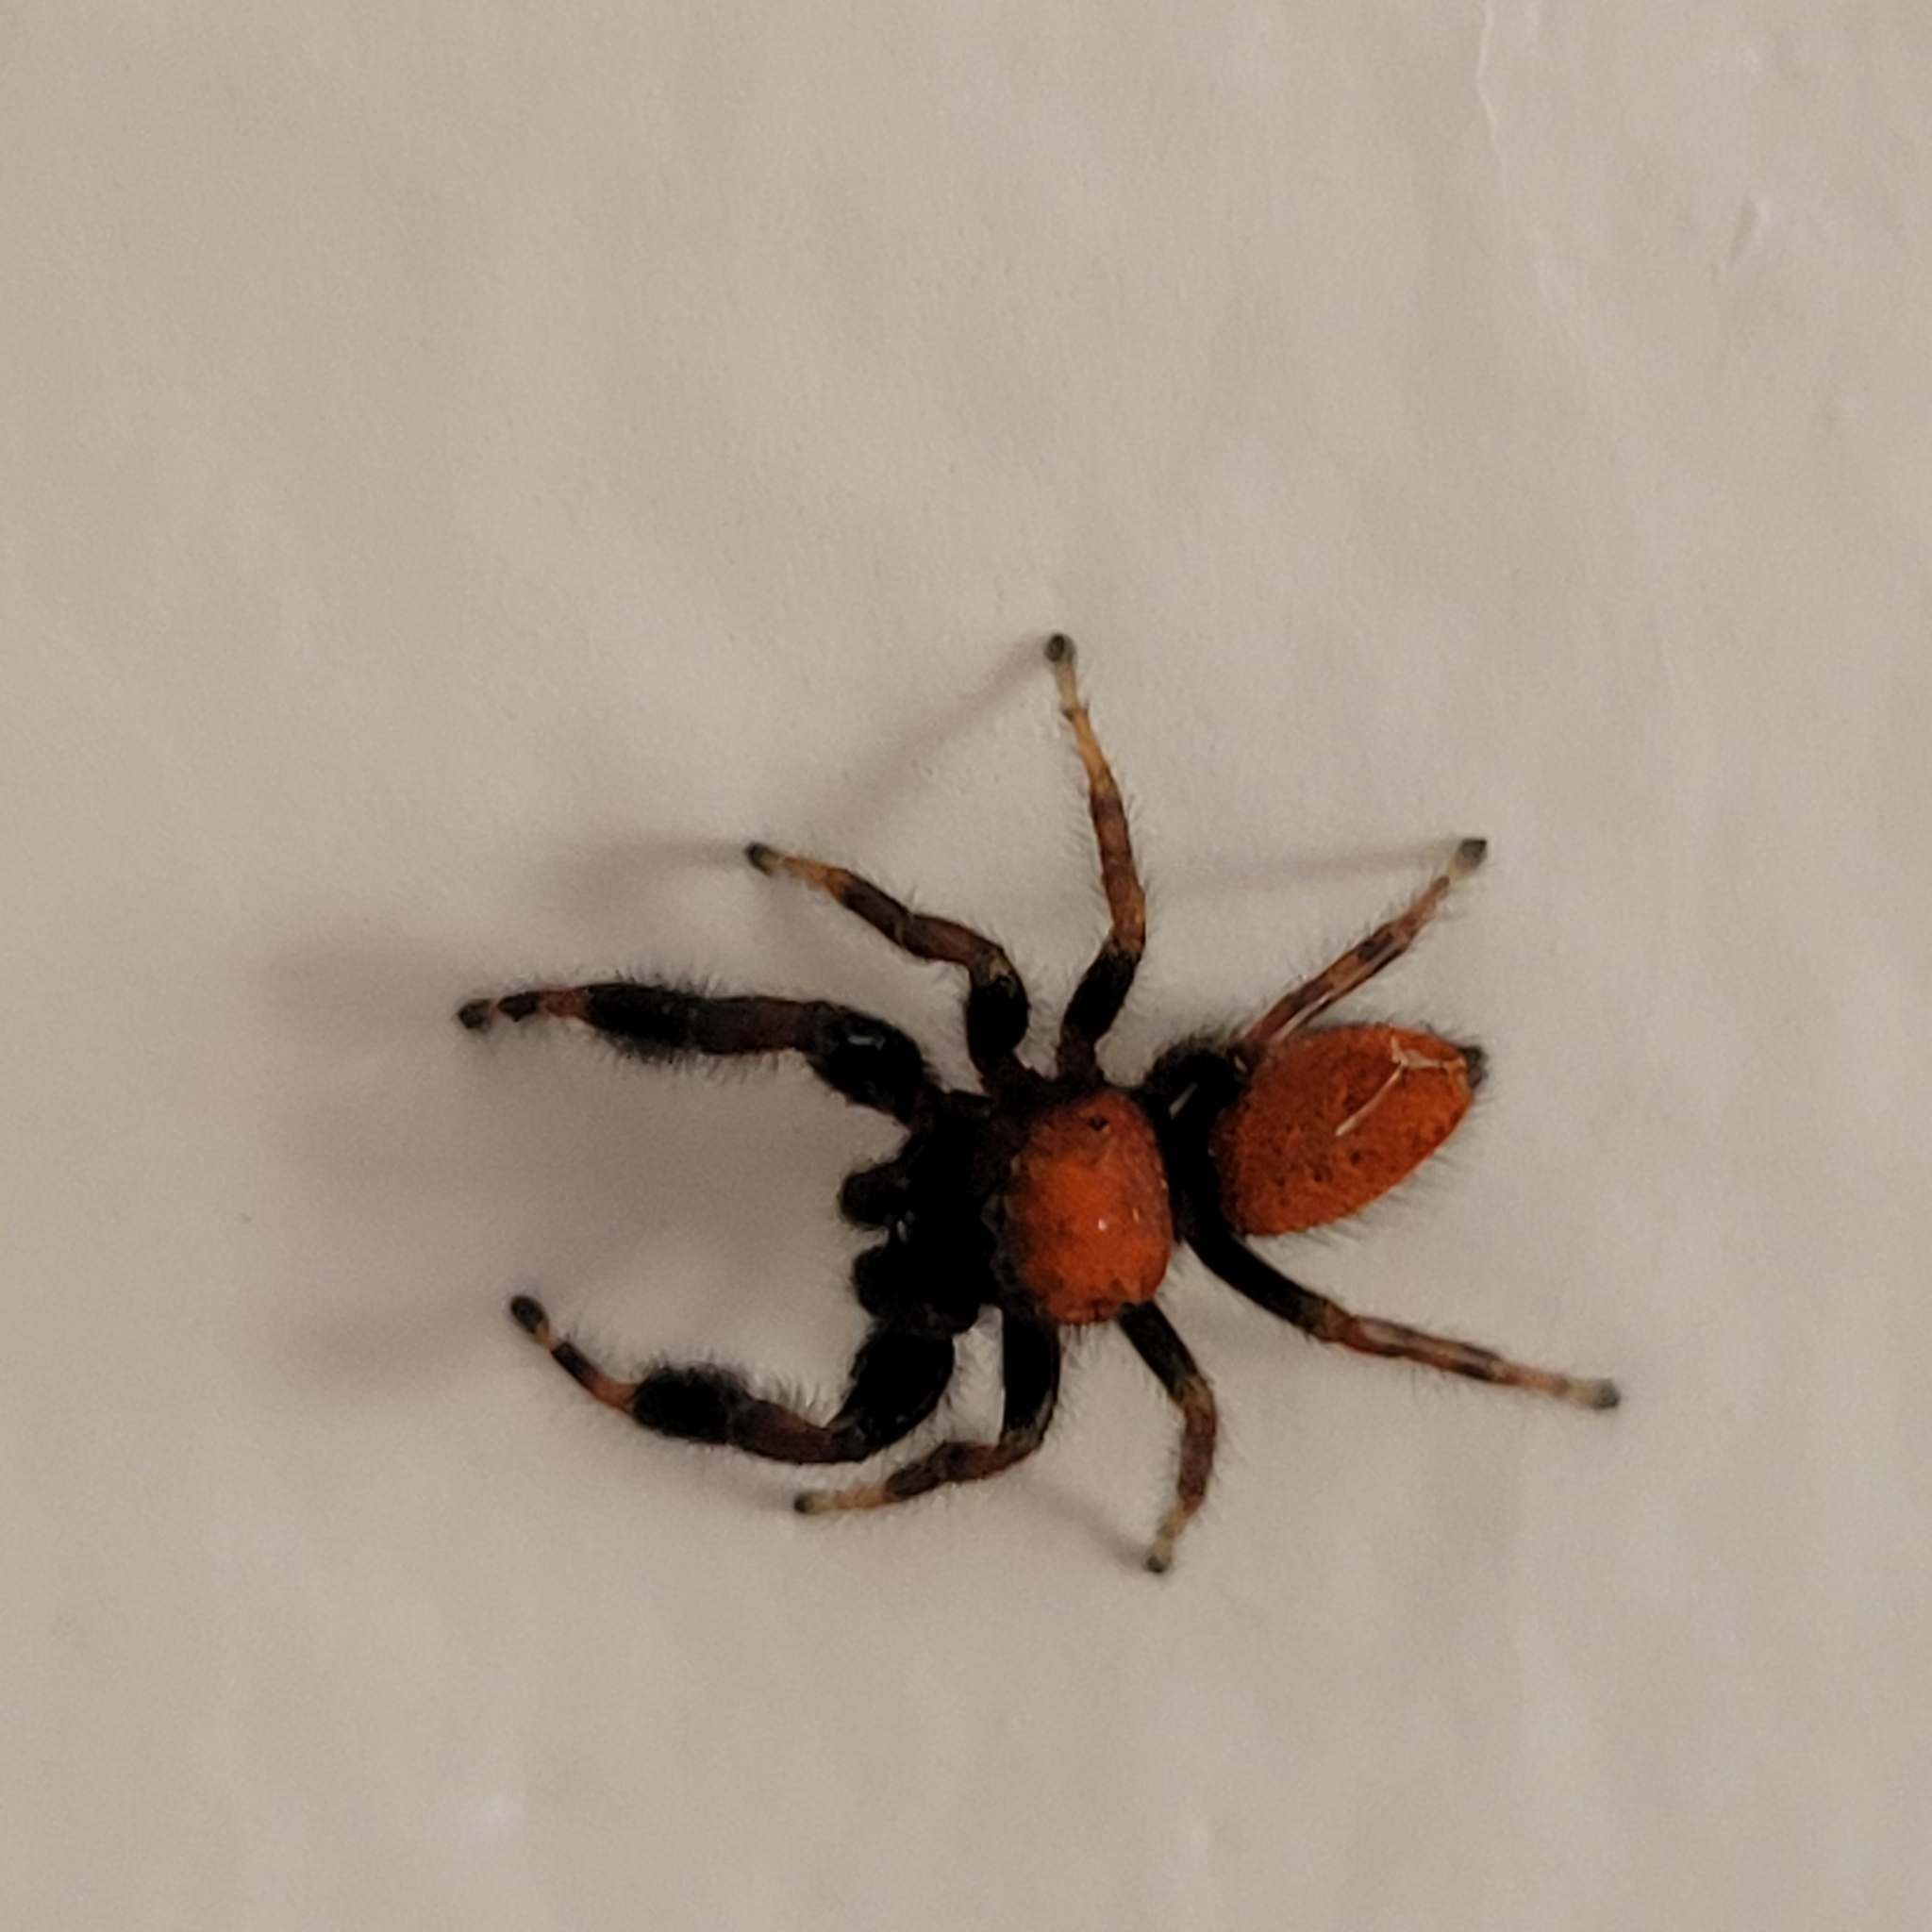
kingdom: Animalia
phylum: Arthropoda
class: Arachnida
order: Araneae
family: Salticidae
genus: Phidippus
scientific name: Phidippus cardinalis
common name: Cardinal jumper
